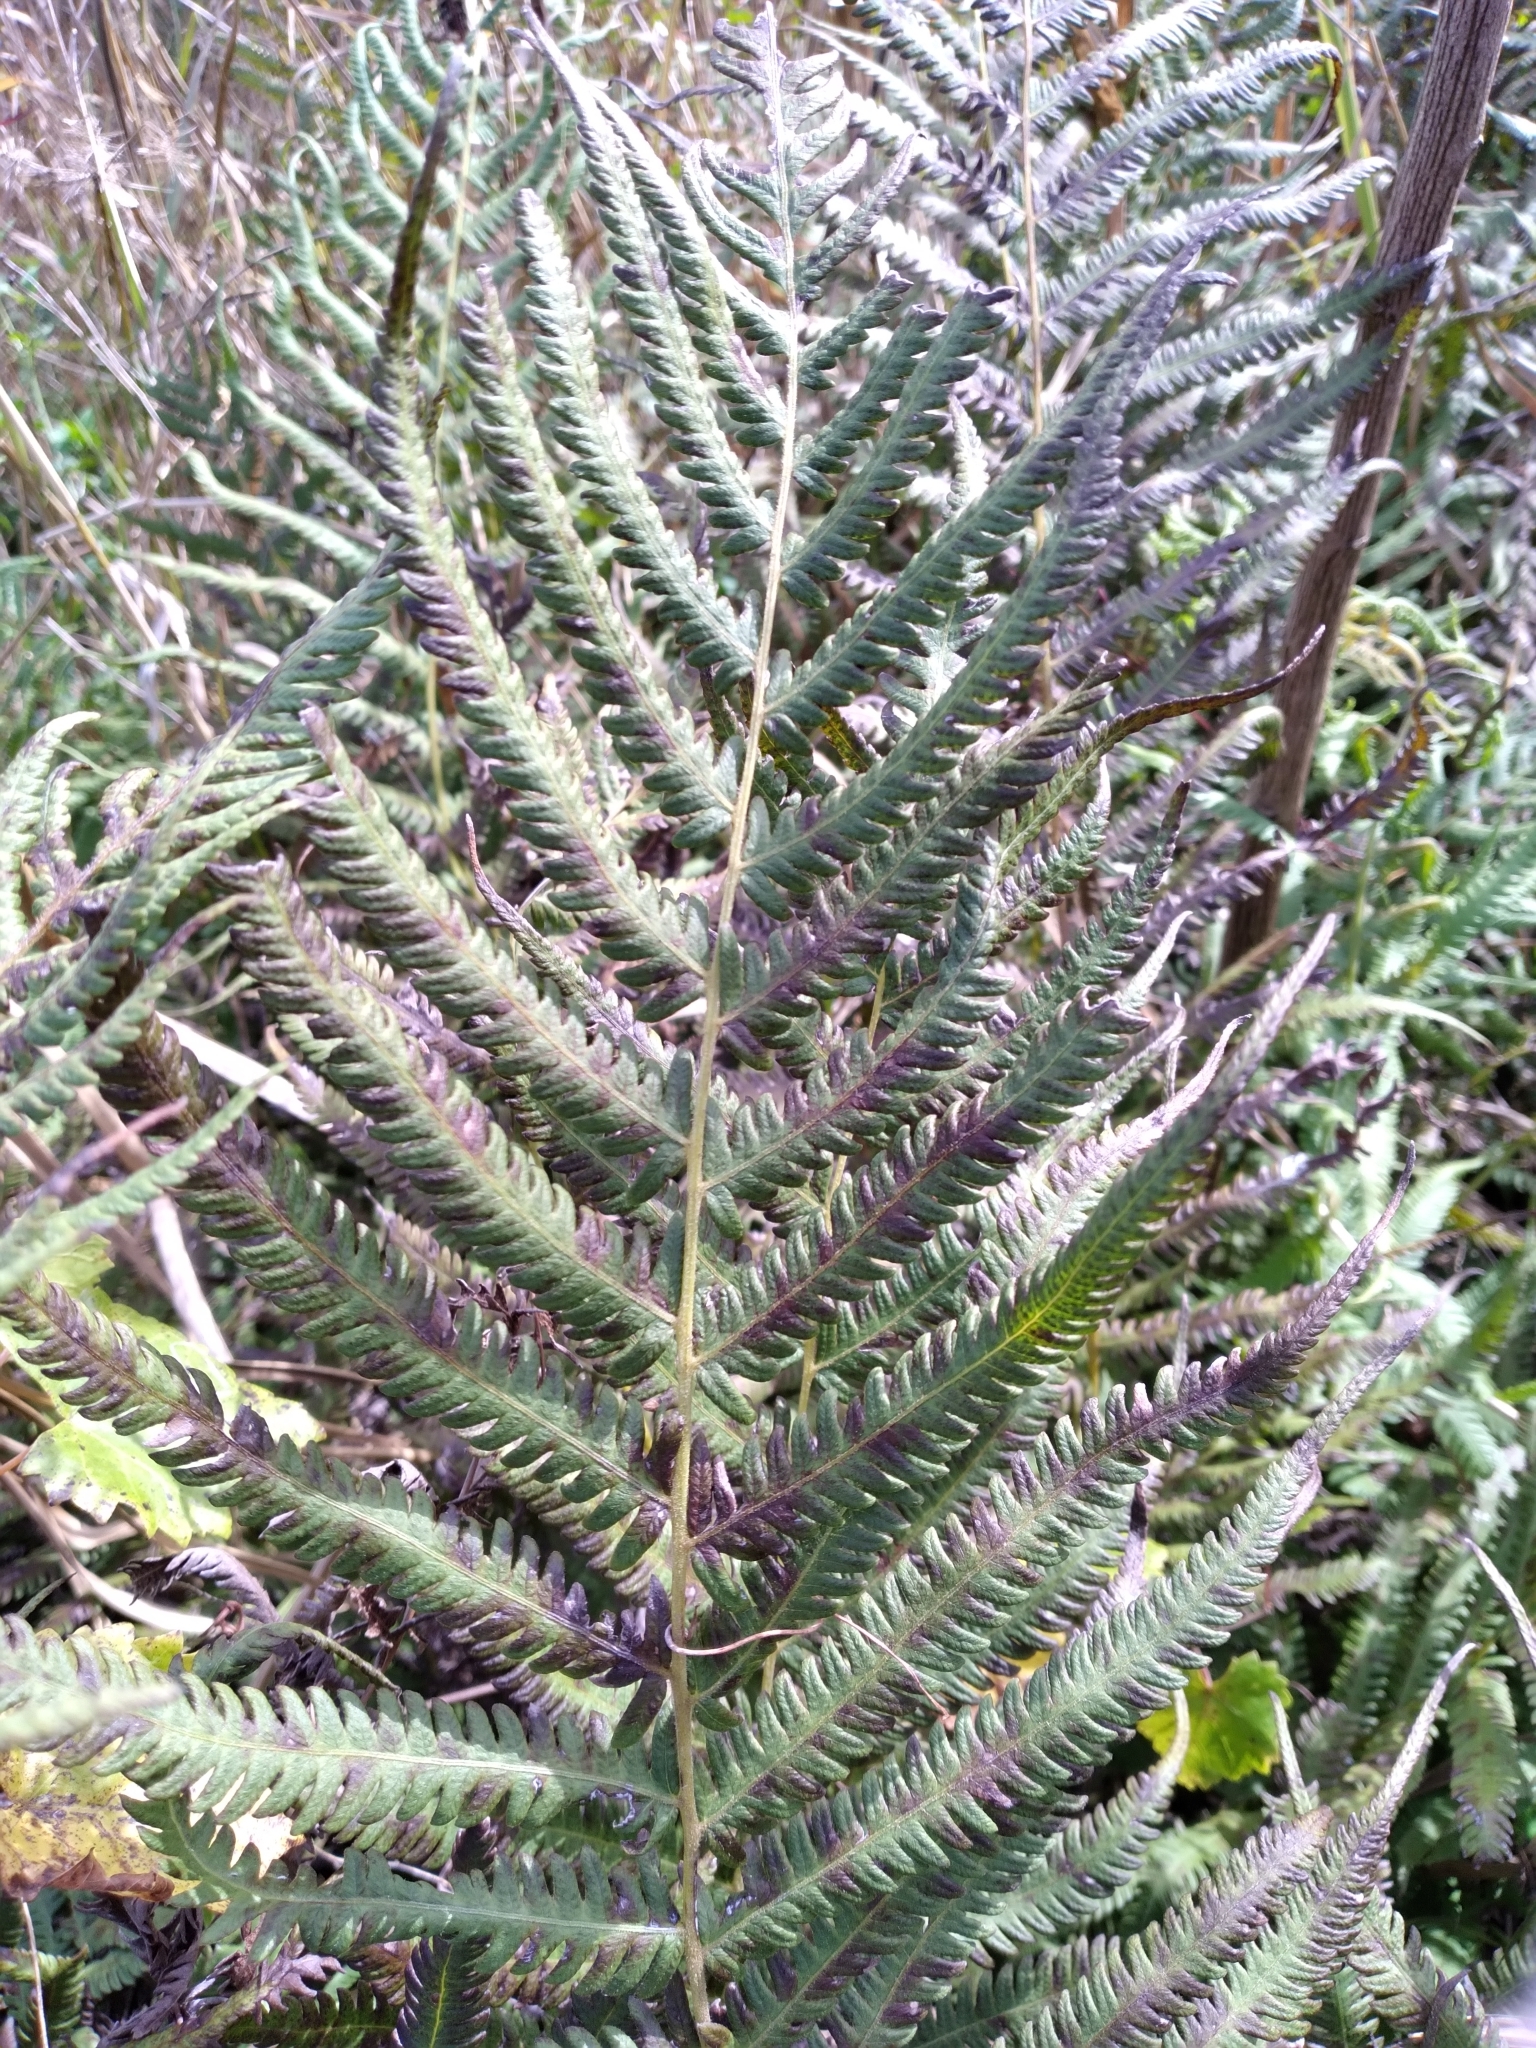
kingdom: Plantae
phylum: Tracheophyta
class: Polypodiopsida
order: Polypodiales
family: Thelypteridaceae
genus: Pelazoneuron
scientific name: Pelazoneuron kunthii
